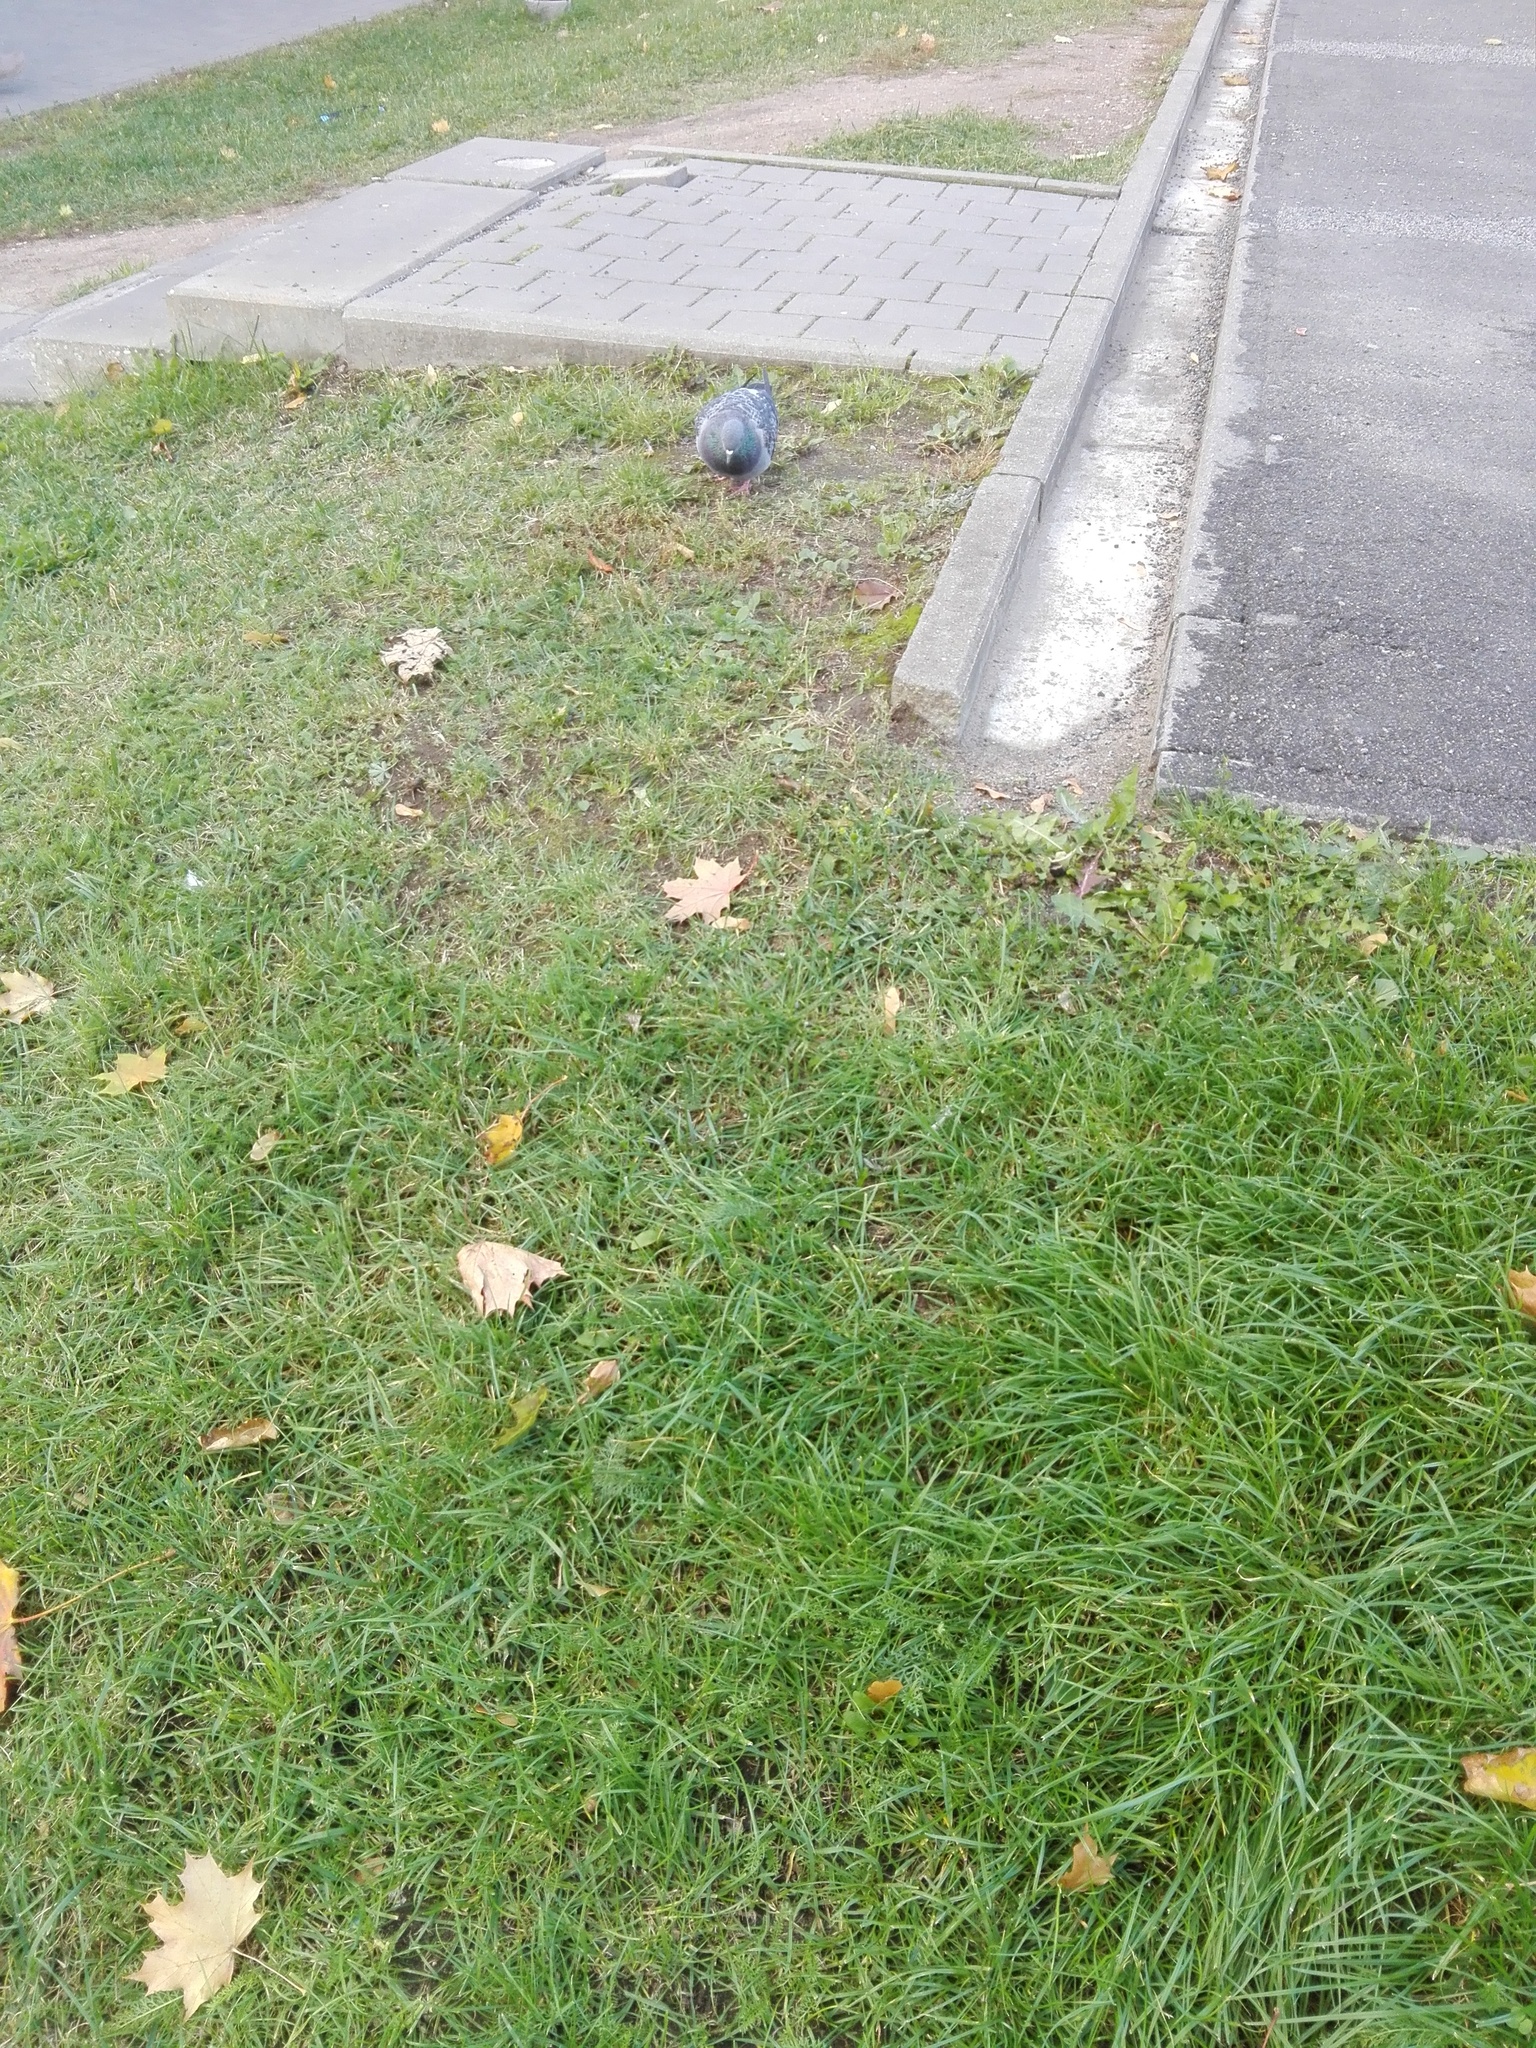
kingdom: Animalia
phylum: Chordata
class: Aves
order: Columbiformes
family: Columbidae
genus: Columba
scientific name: Columba livia
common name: Rock pigeon
